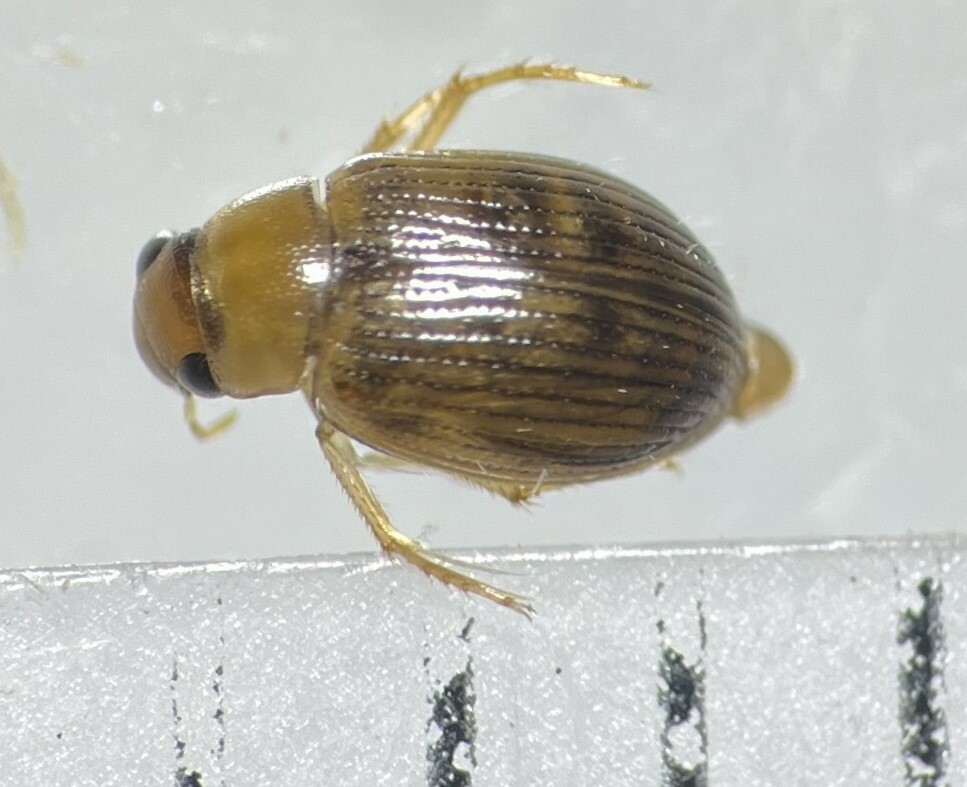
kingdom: Animalia
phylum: Arthropoda
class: Insecta
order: Coleoptera
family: Hydrophilidae
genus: Berosus
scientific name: Berosus exiguus
